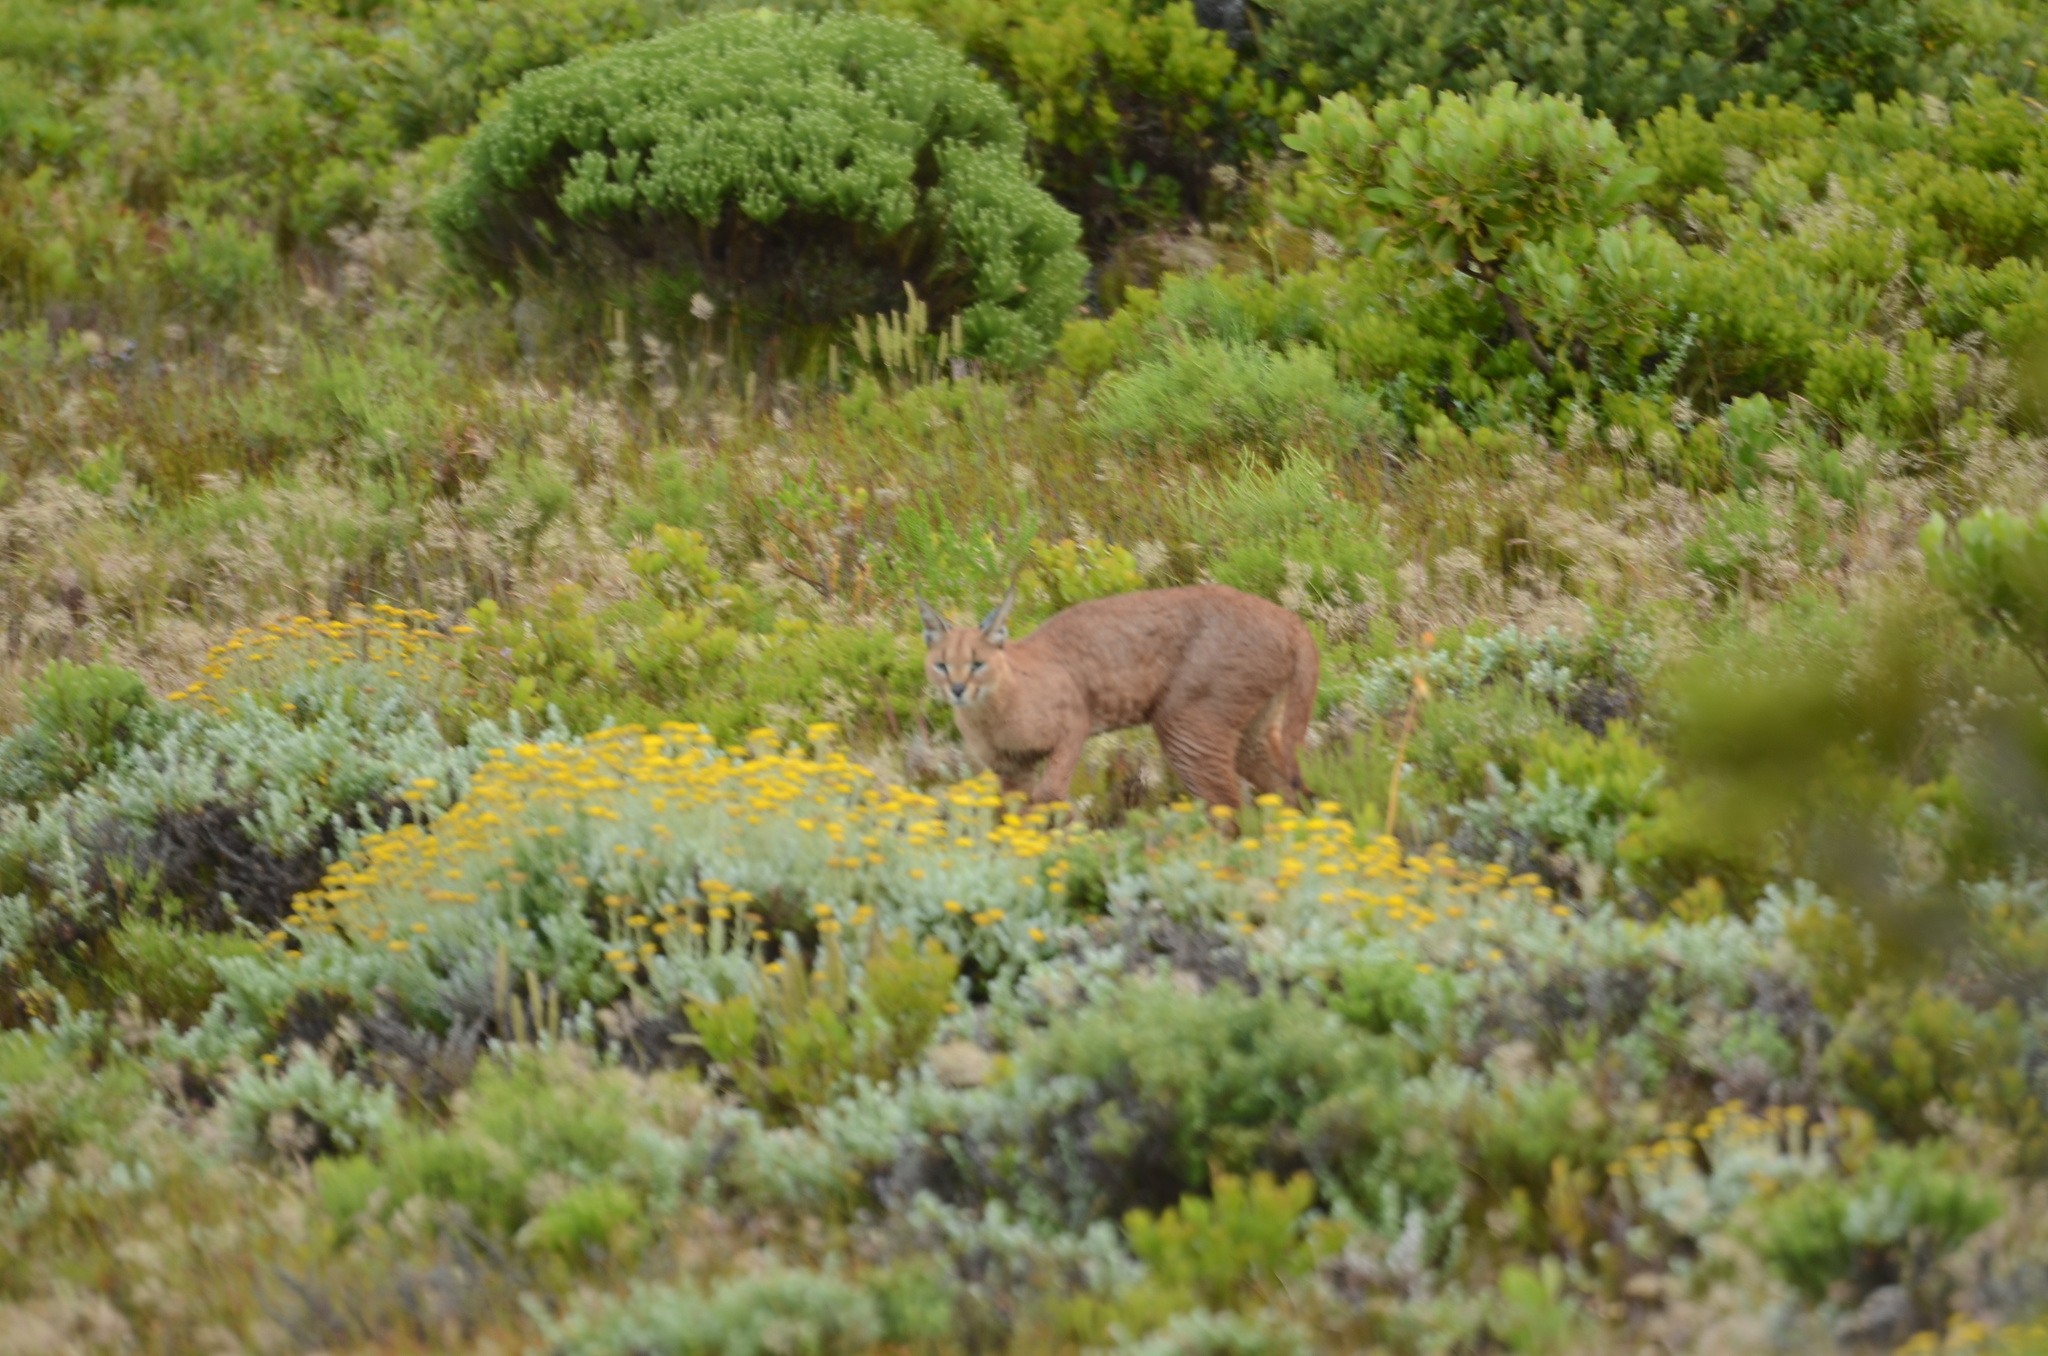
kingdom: Animalia
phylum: Chordata
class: Mammalia
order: Carnivora
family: Felidae
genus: Caracal
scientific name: Caracal caracal
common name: Caracal
